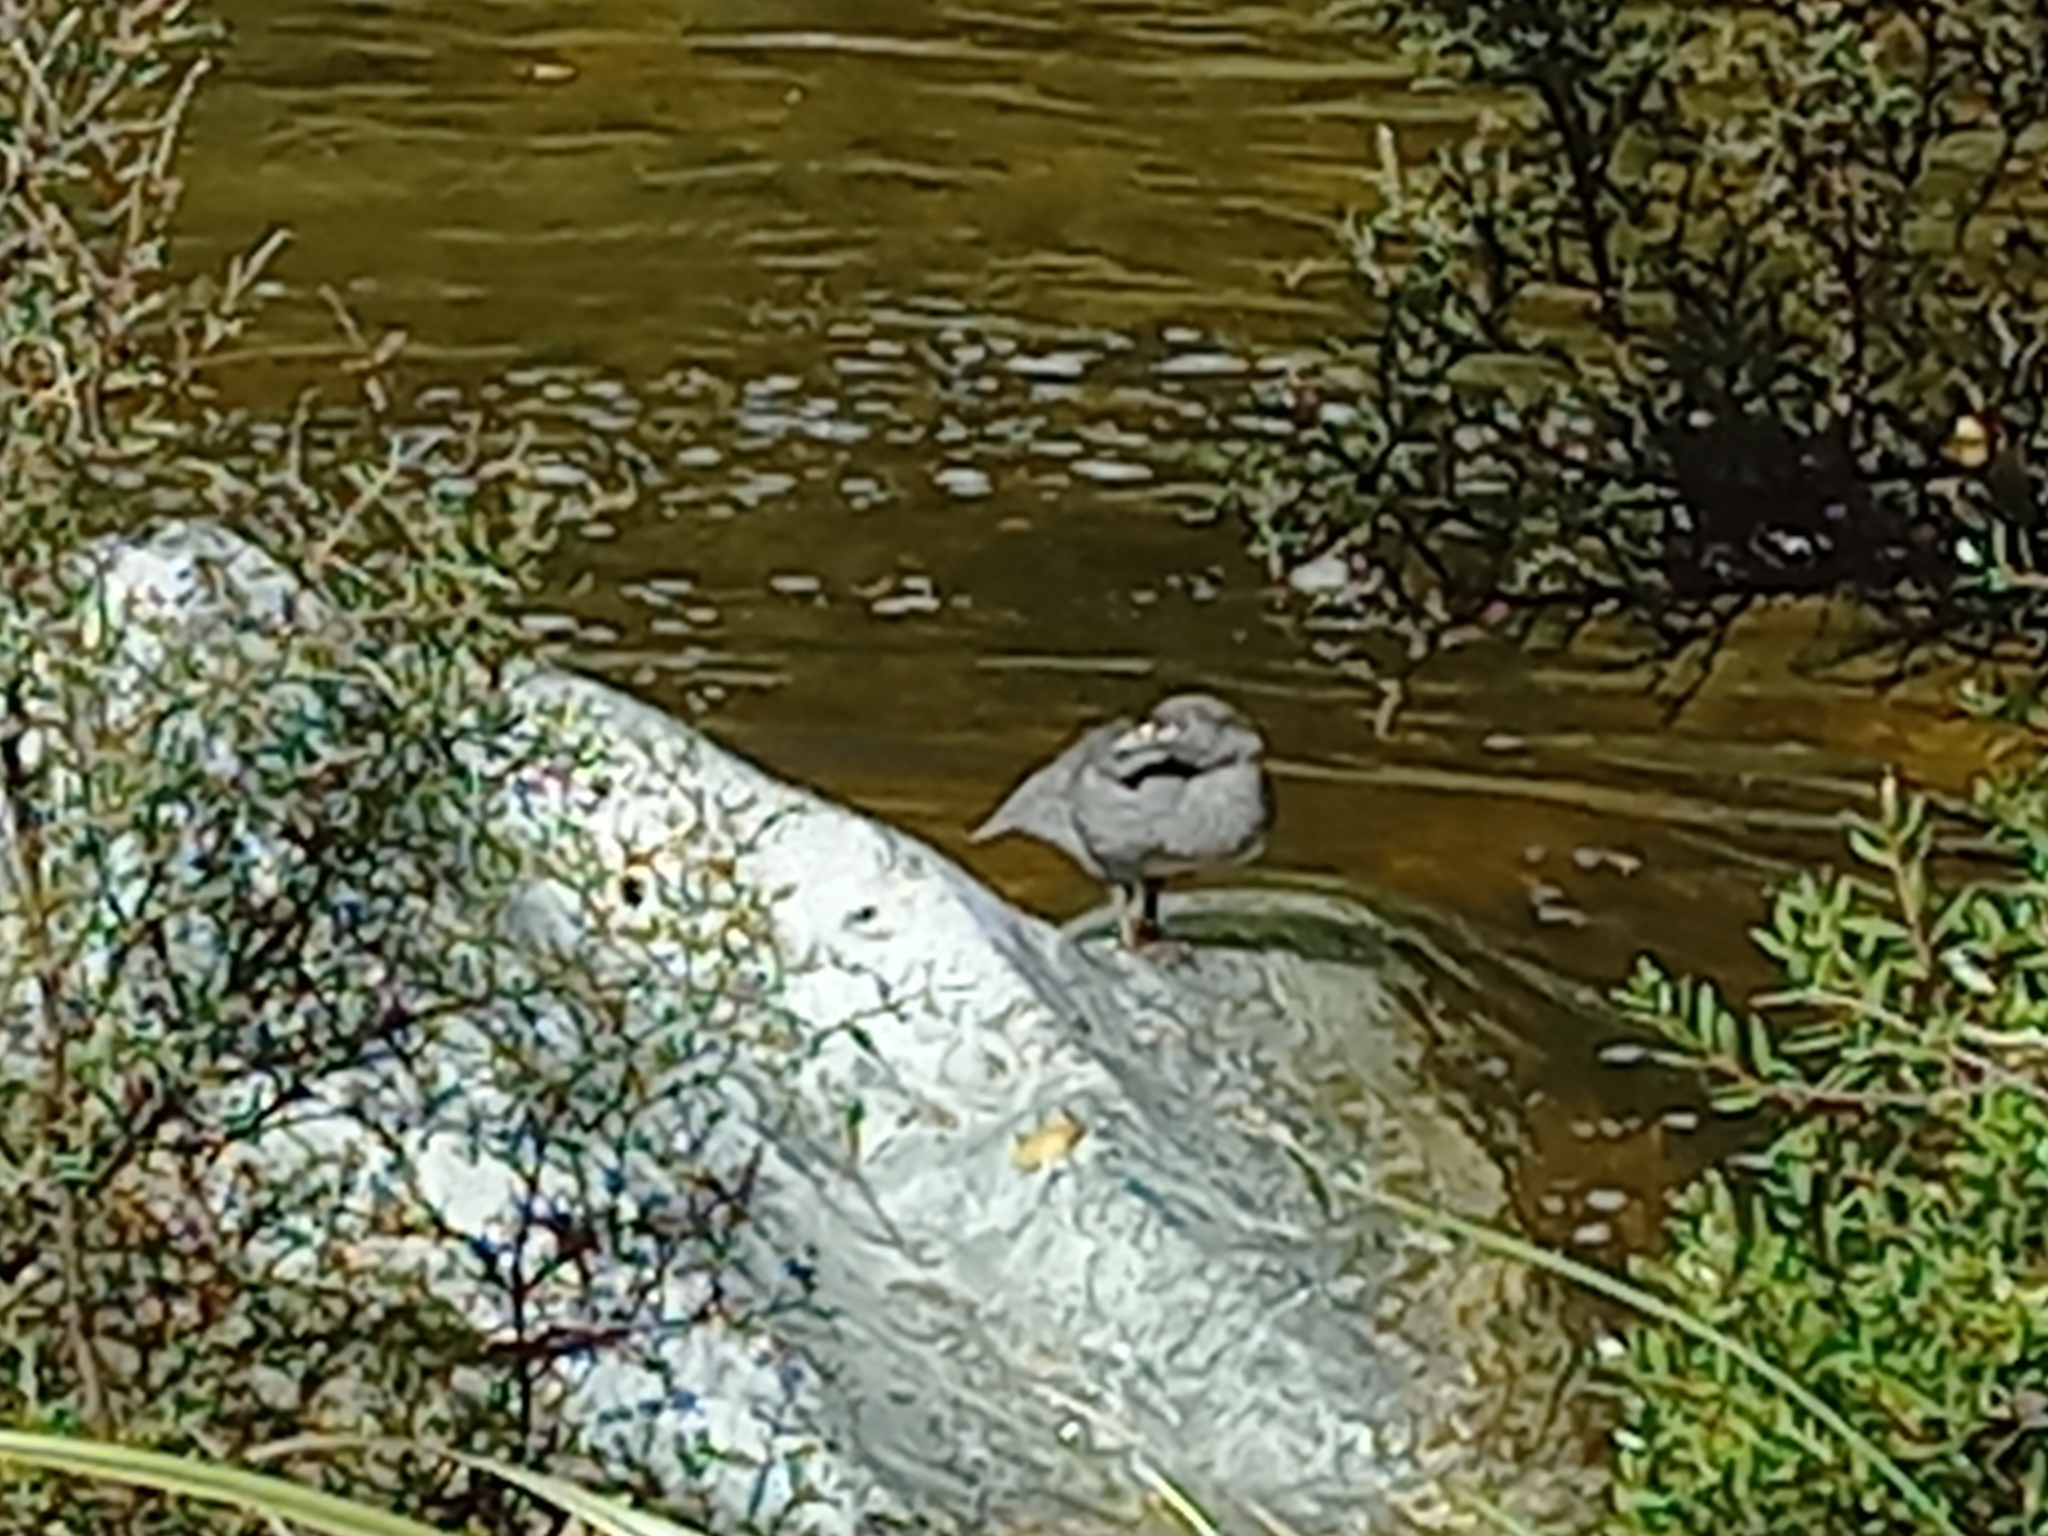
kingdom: Animalia
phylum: Chordata
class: Aves
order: Anseriformes
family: Anatidae
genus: Hymenolaimus
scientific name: Hymenolaimus malacorhynchos
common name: Blue duck
